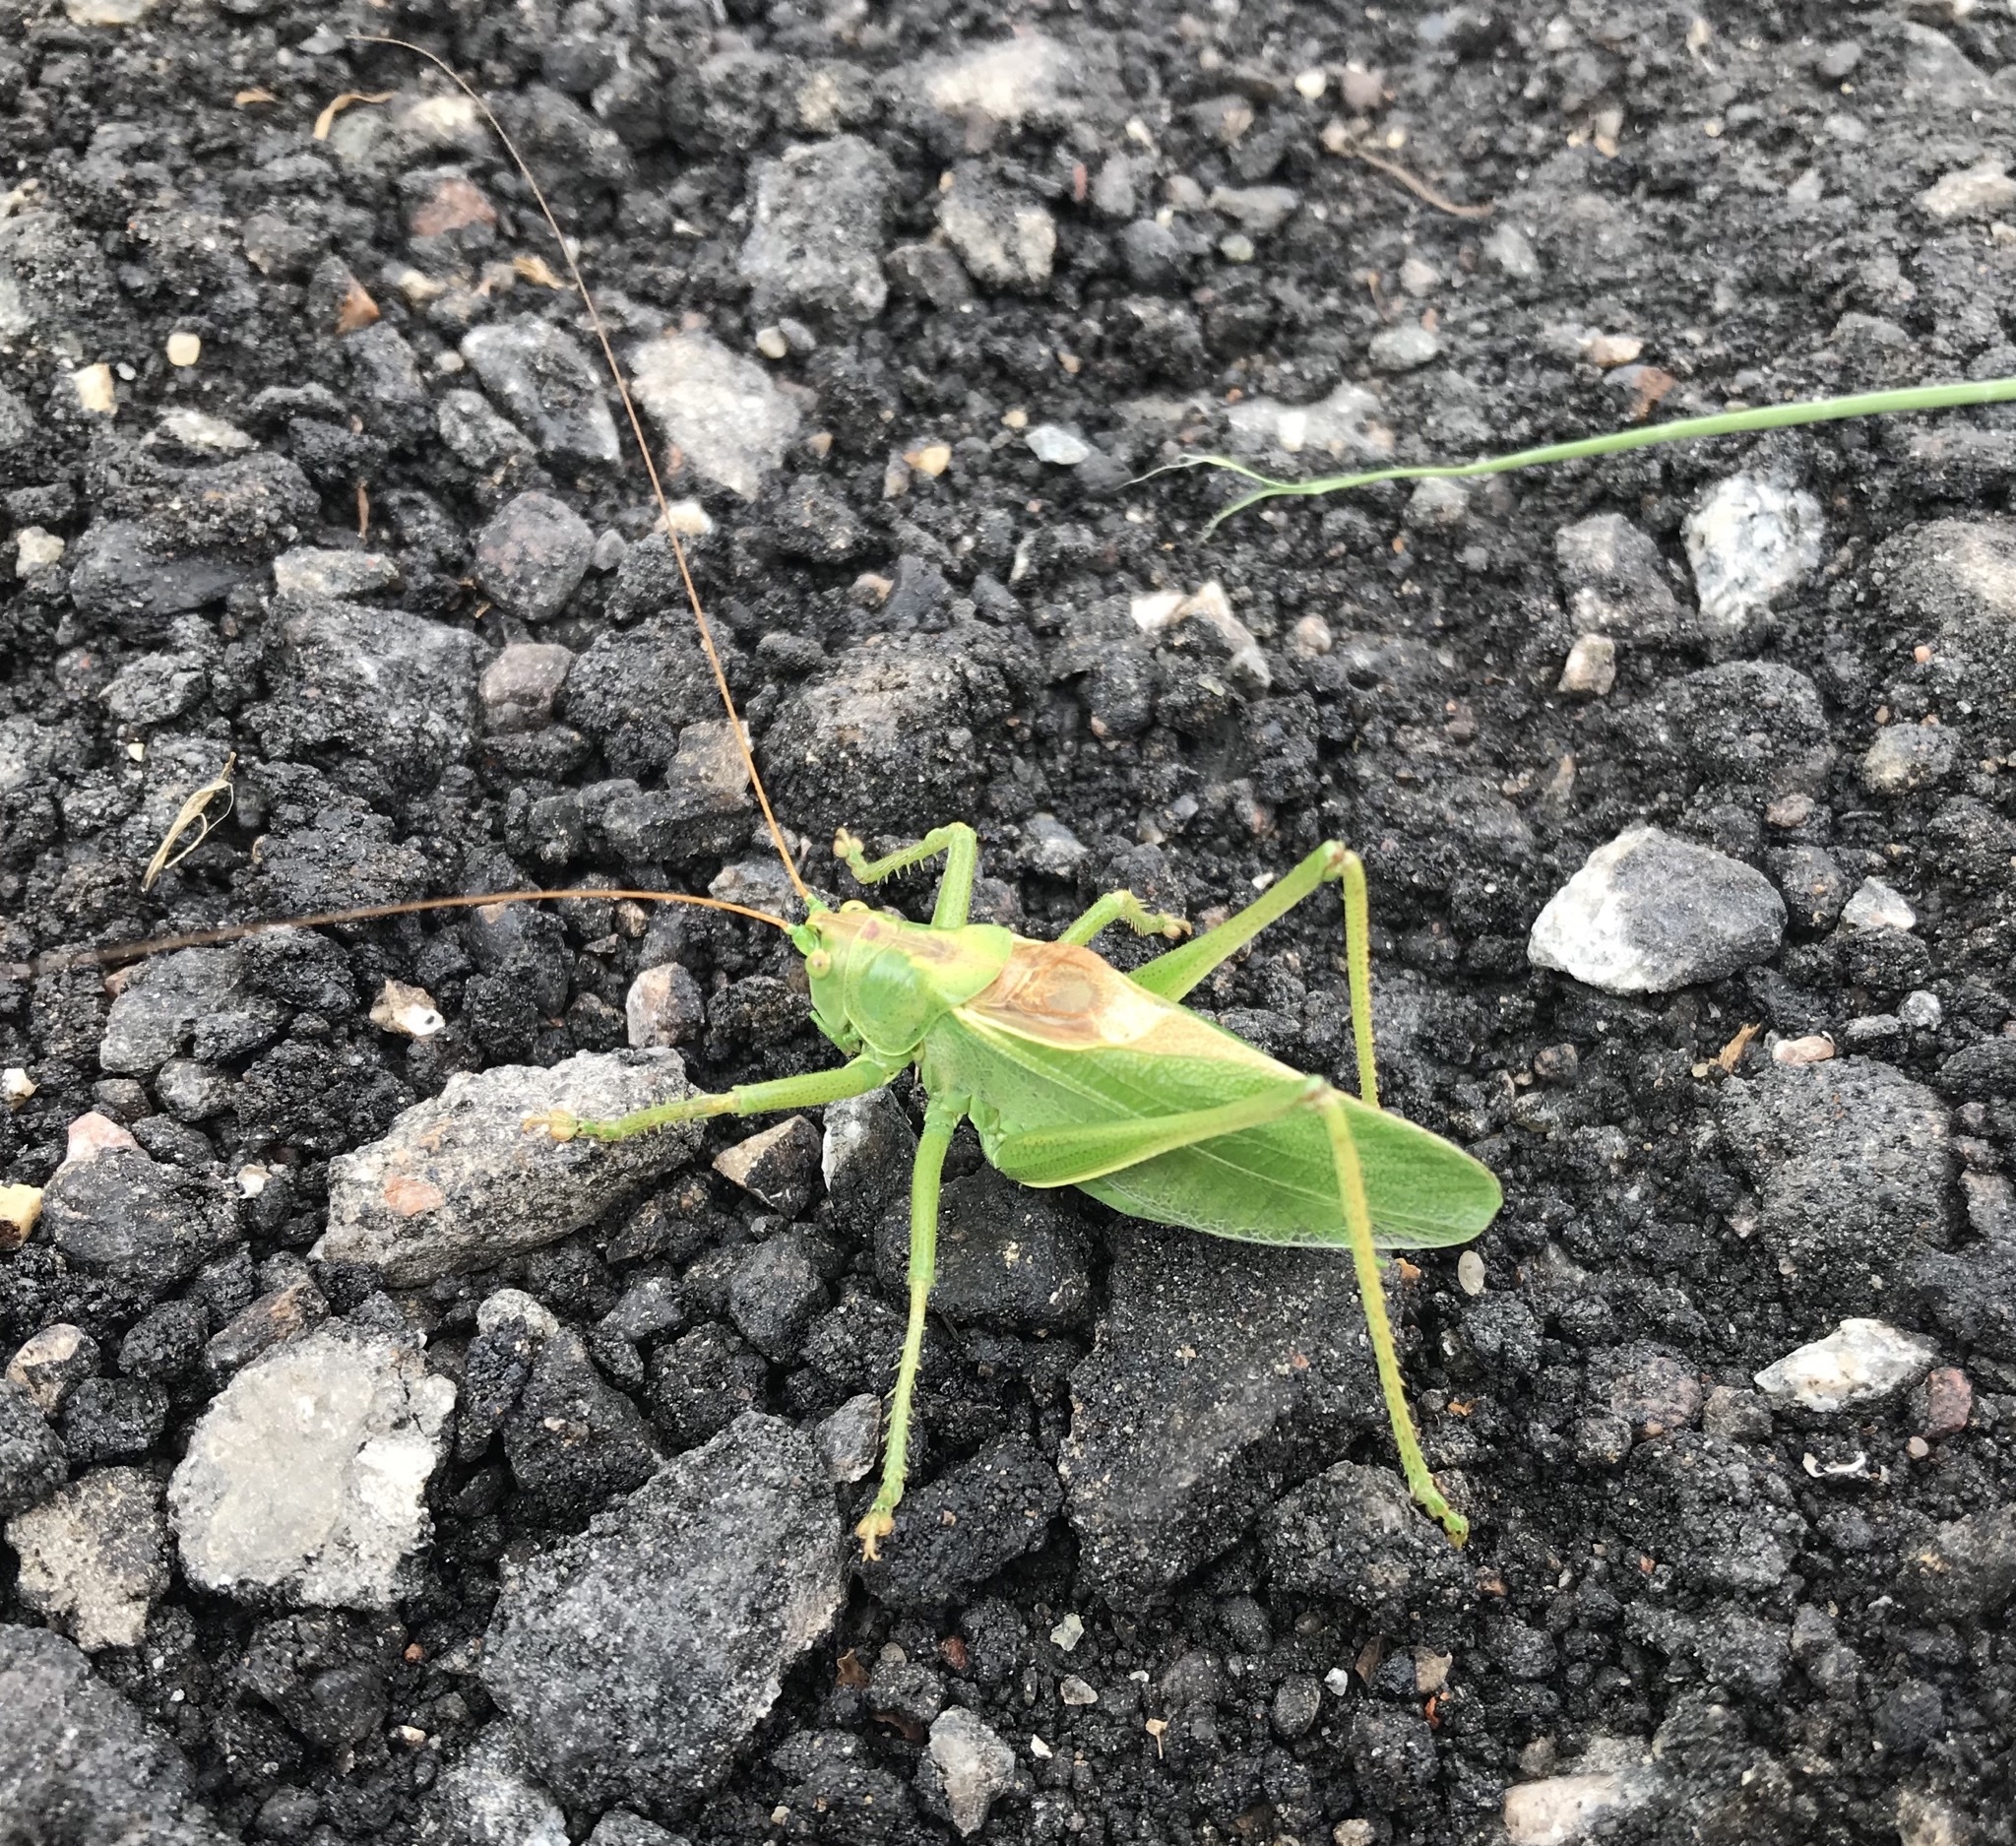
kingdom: Animalia
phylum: Arthropoda
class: Insecta
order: Orthoptera
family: Tettigoniidae
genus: Tettigonia
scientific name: Tettigonia cantans
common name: Upland green bush-cricket
